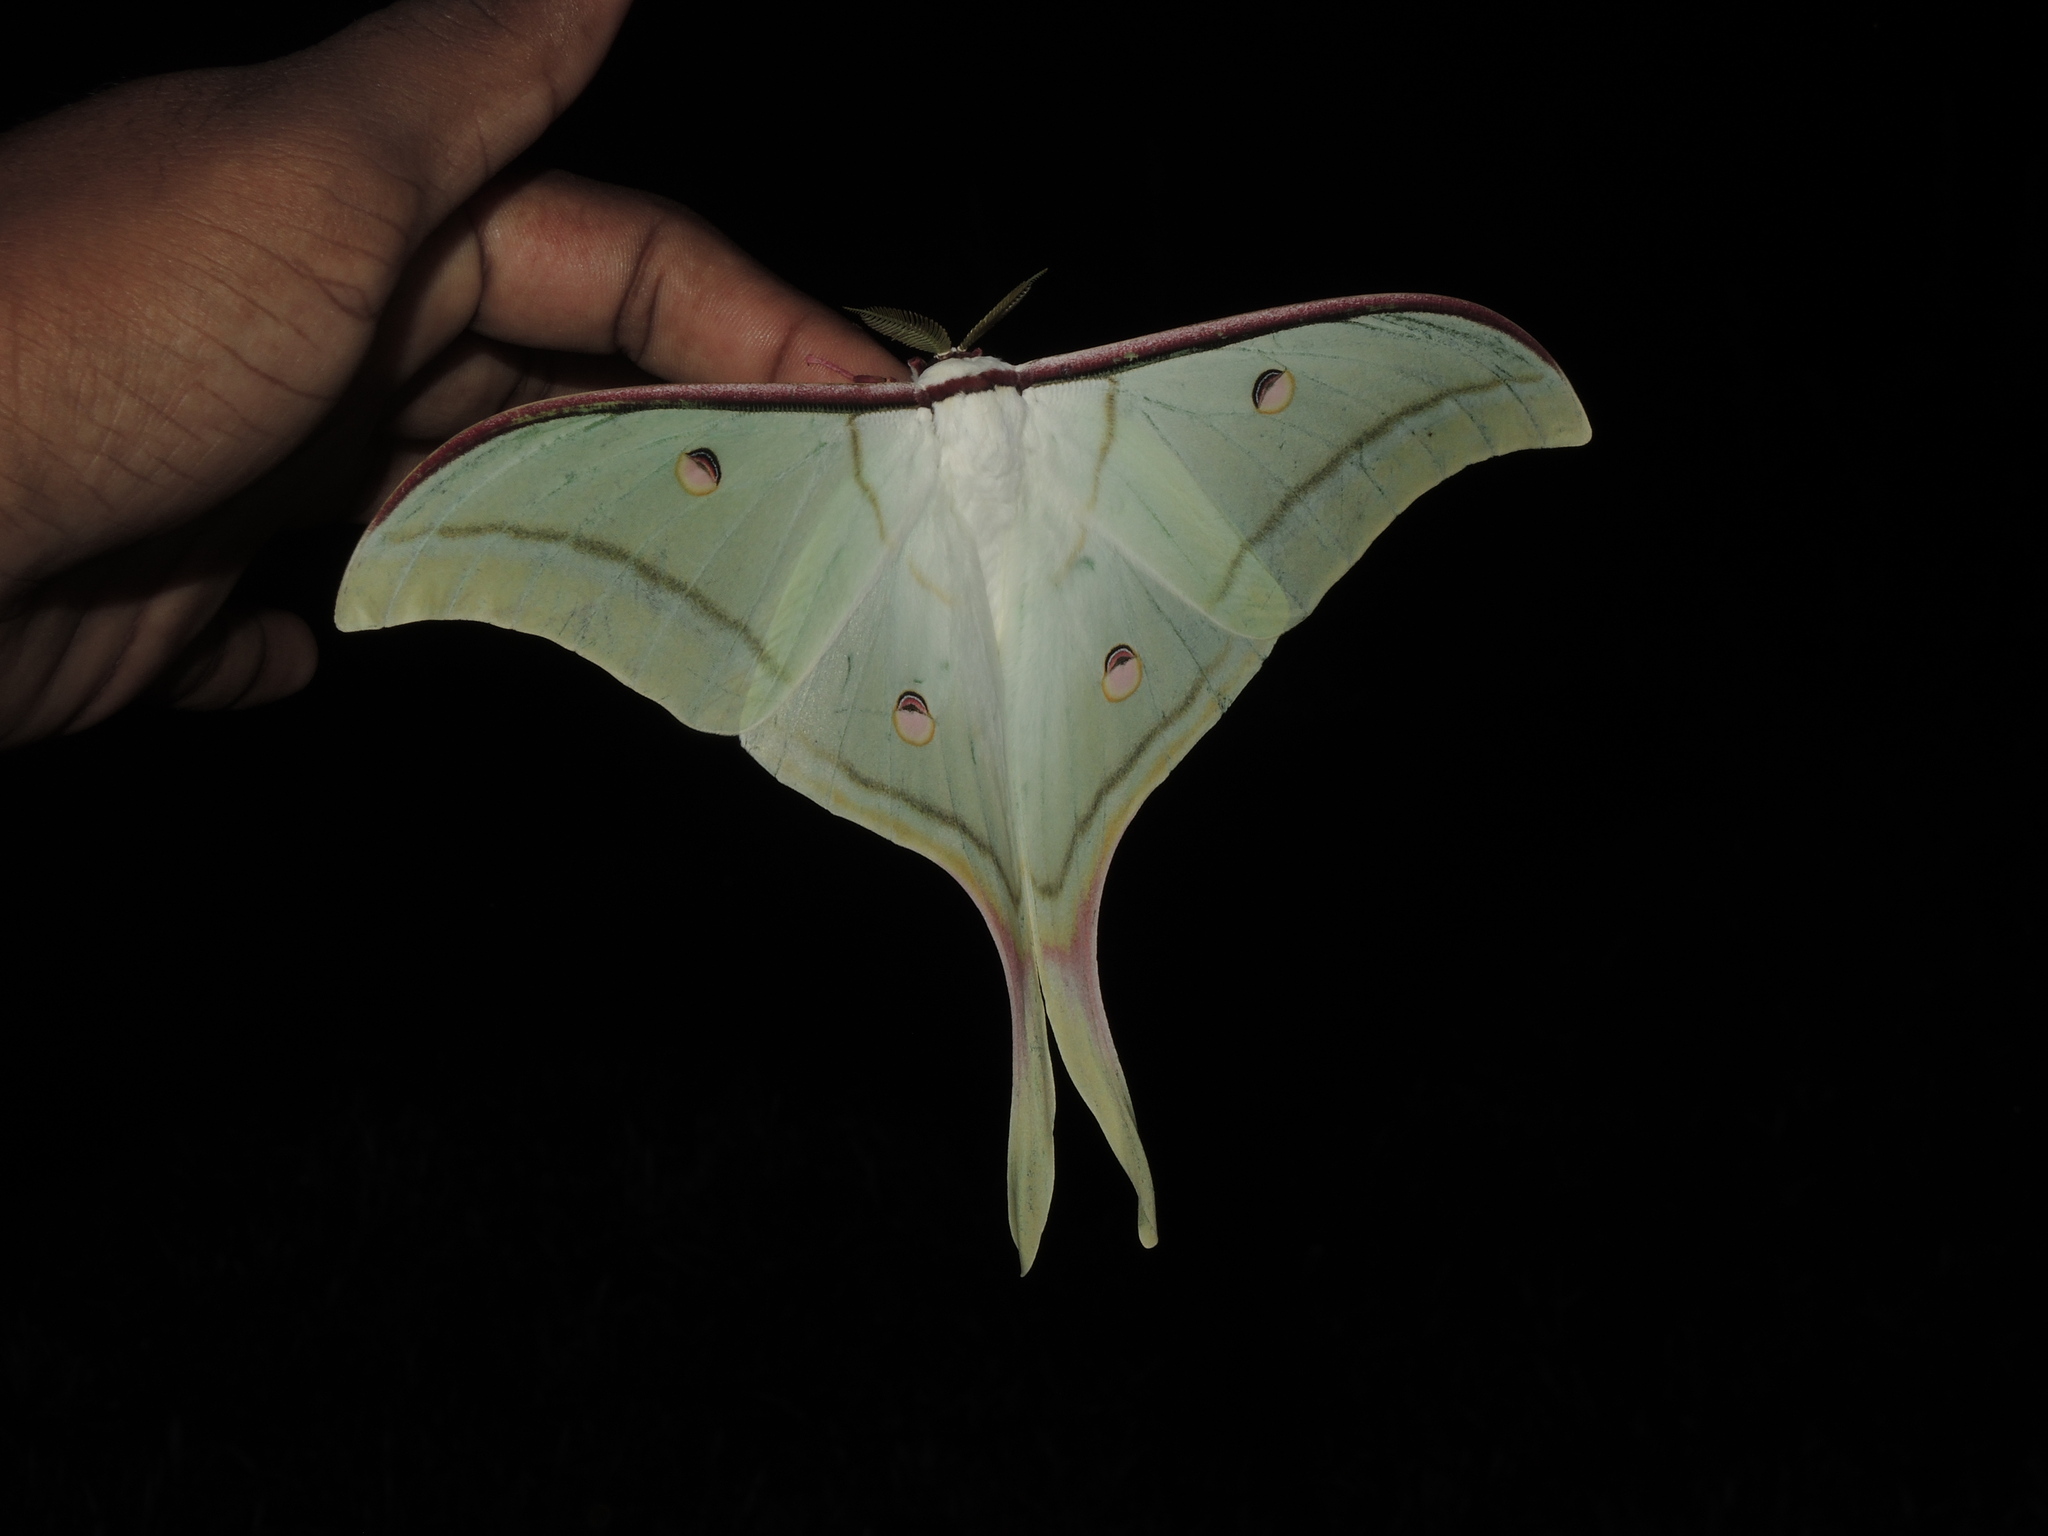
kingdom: Animalia
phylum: Arthropoda
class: Insecta
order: Lepidoptera
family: Saturniidae
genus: Actias
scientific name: Actias selene
